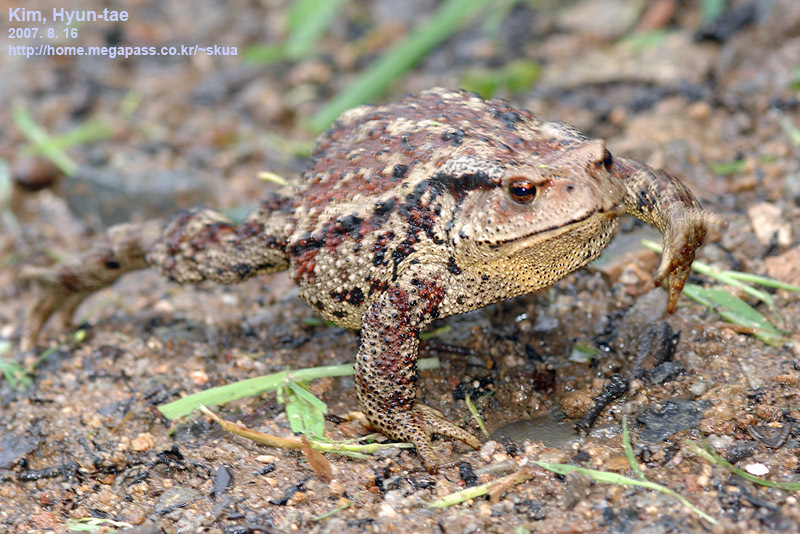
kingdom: Animalia
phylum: Chordata
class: Amphibia
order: Anura
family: Bufonidae
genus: Bufo
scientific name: Bufo gargarizans
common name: Asiatic toad
